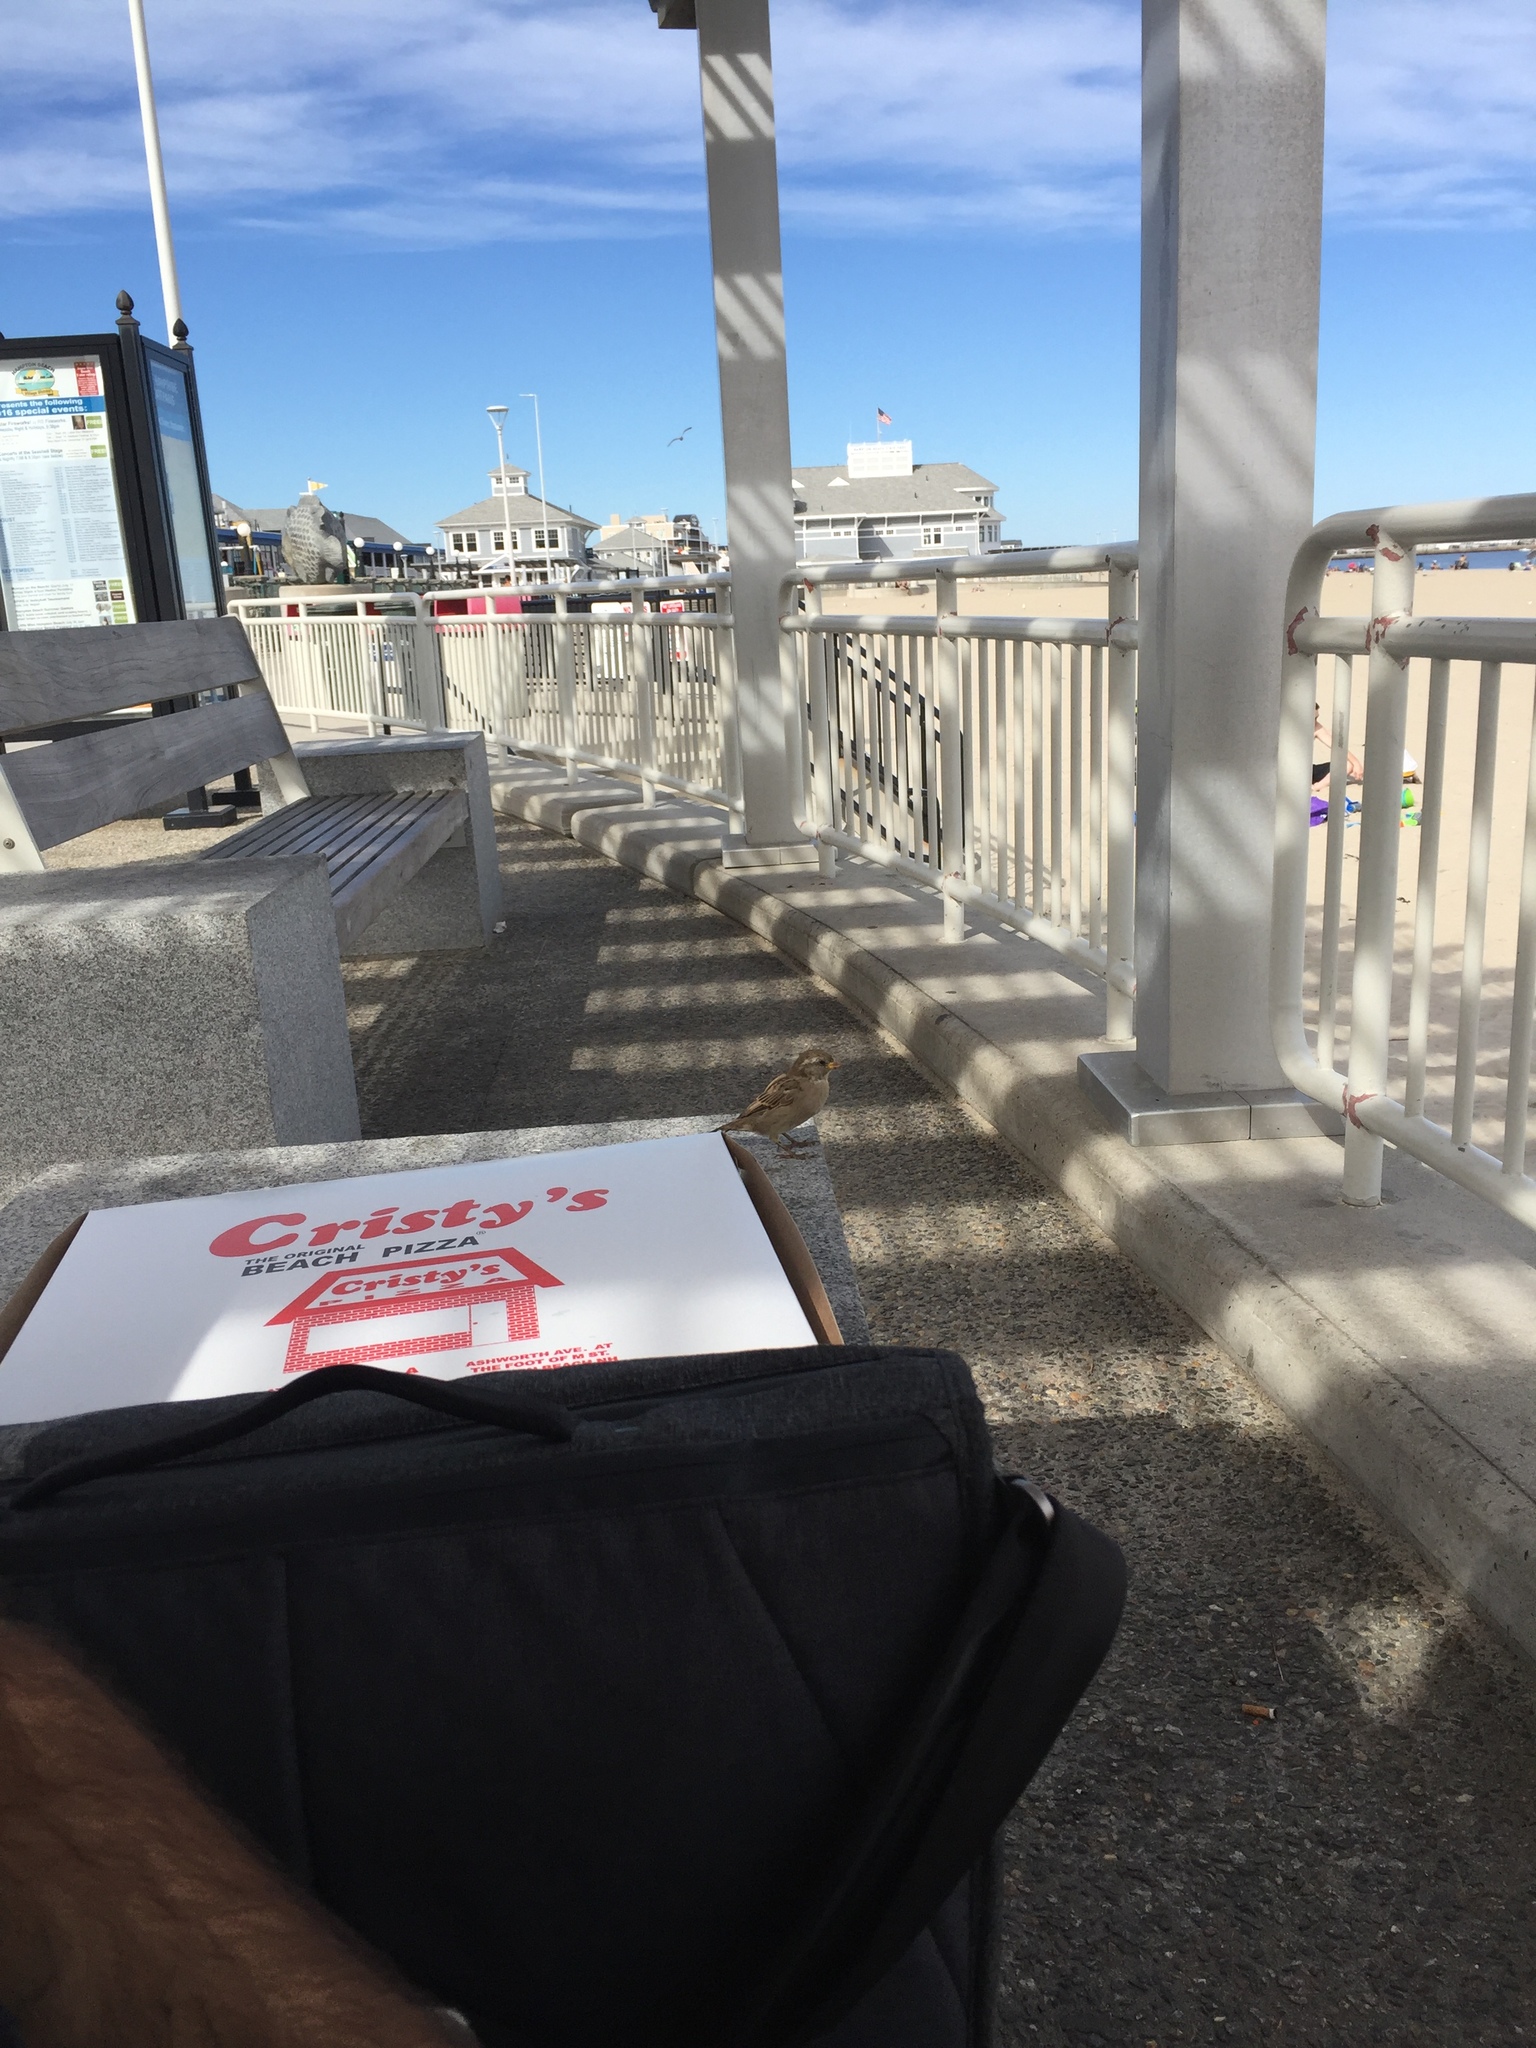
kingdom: Animalia
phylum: Chordata
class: Aves
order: Passeriformes
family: Passeridae
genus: Passer
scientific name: Passer domesticus
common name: House sparrow
